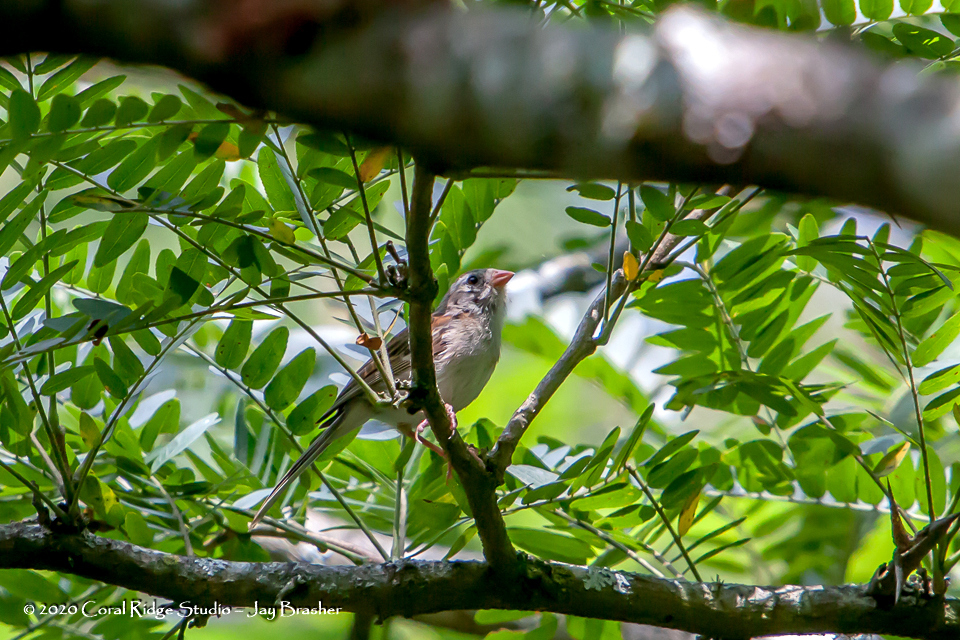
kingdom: Animalia
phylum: Chordata
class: Aves
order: Passeriformes
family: Passerellidae
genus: Spizella
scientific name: Spizella pusilla
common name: Field sparrow
